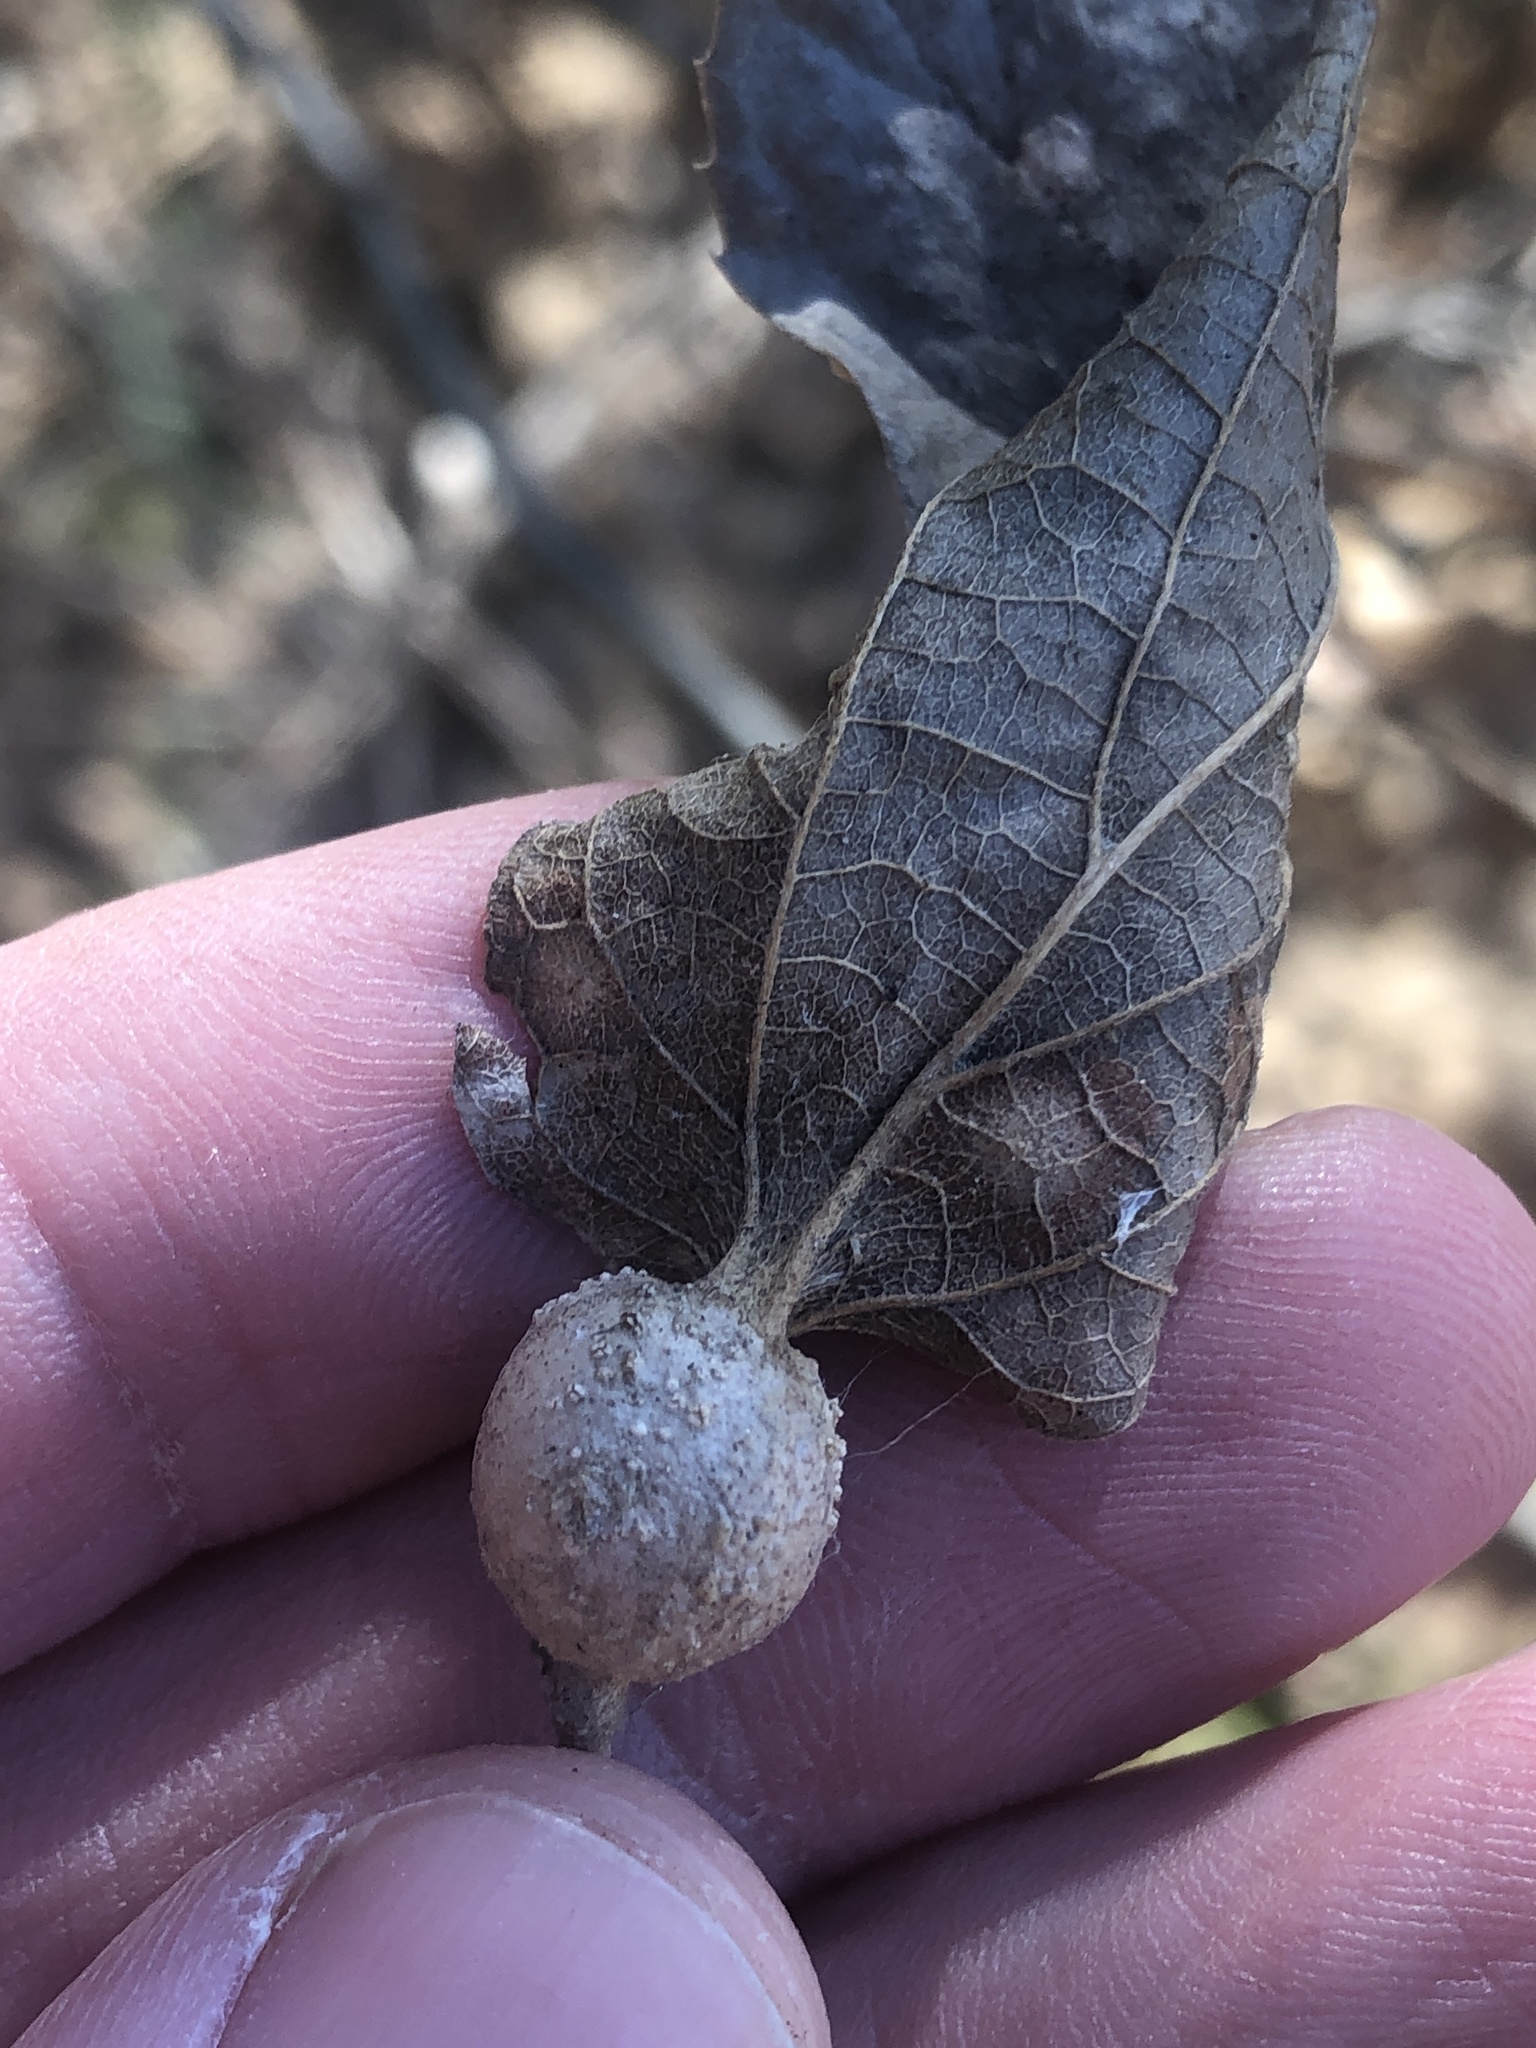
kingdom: Animalia
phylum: Arthropoda
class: Insecta
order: Hemiptera
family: Aphalaridae
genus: Pachypsylla
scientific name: Pachypsylla venusta
